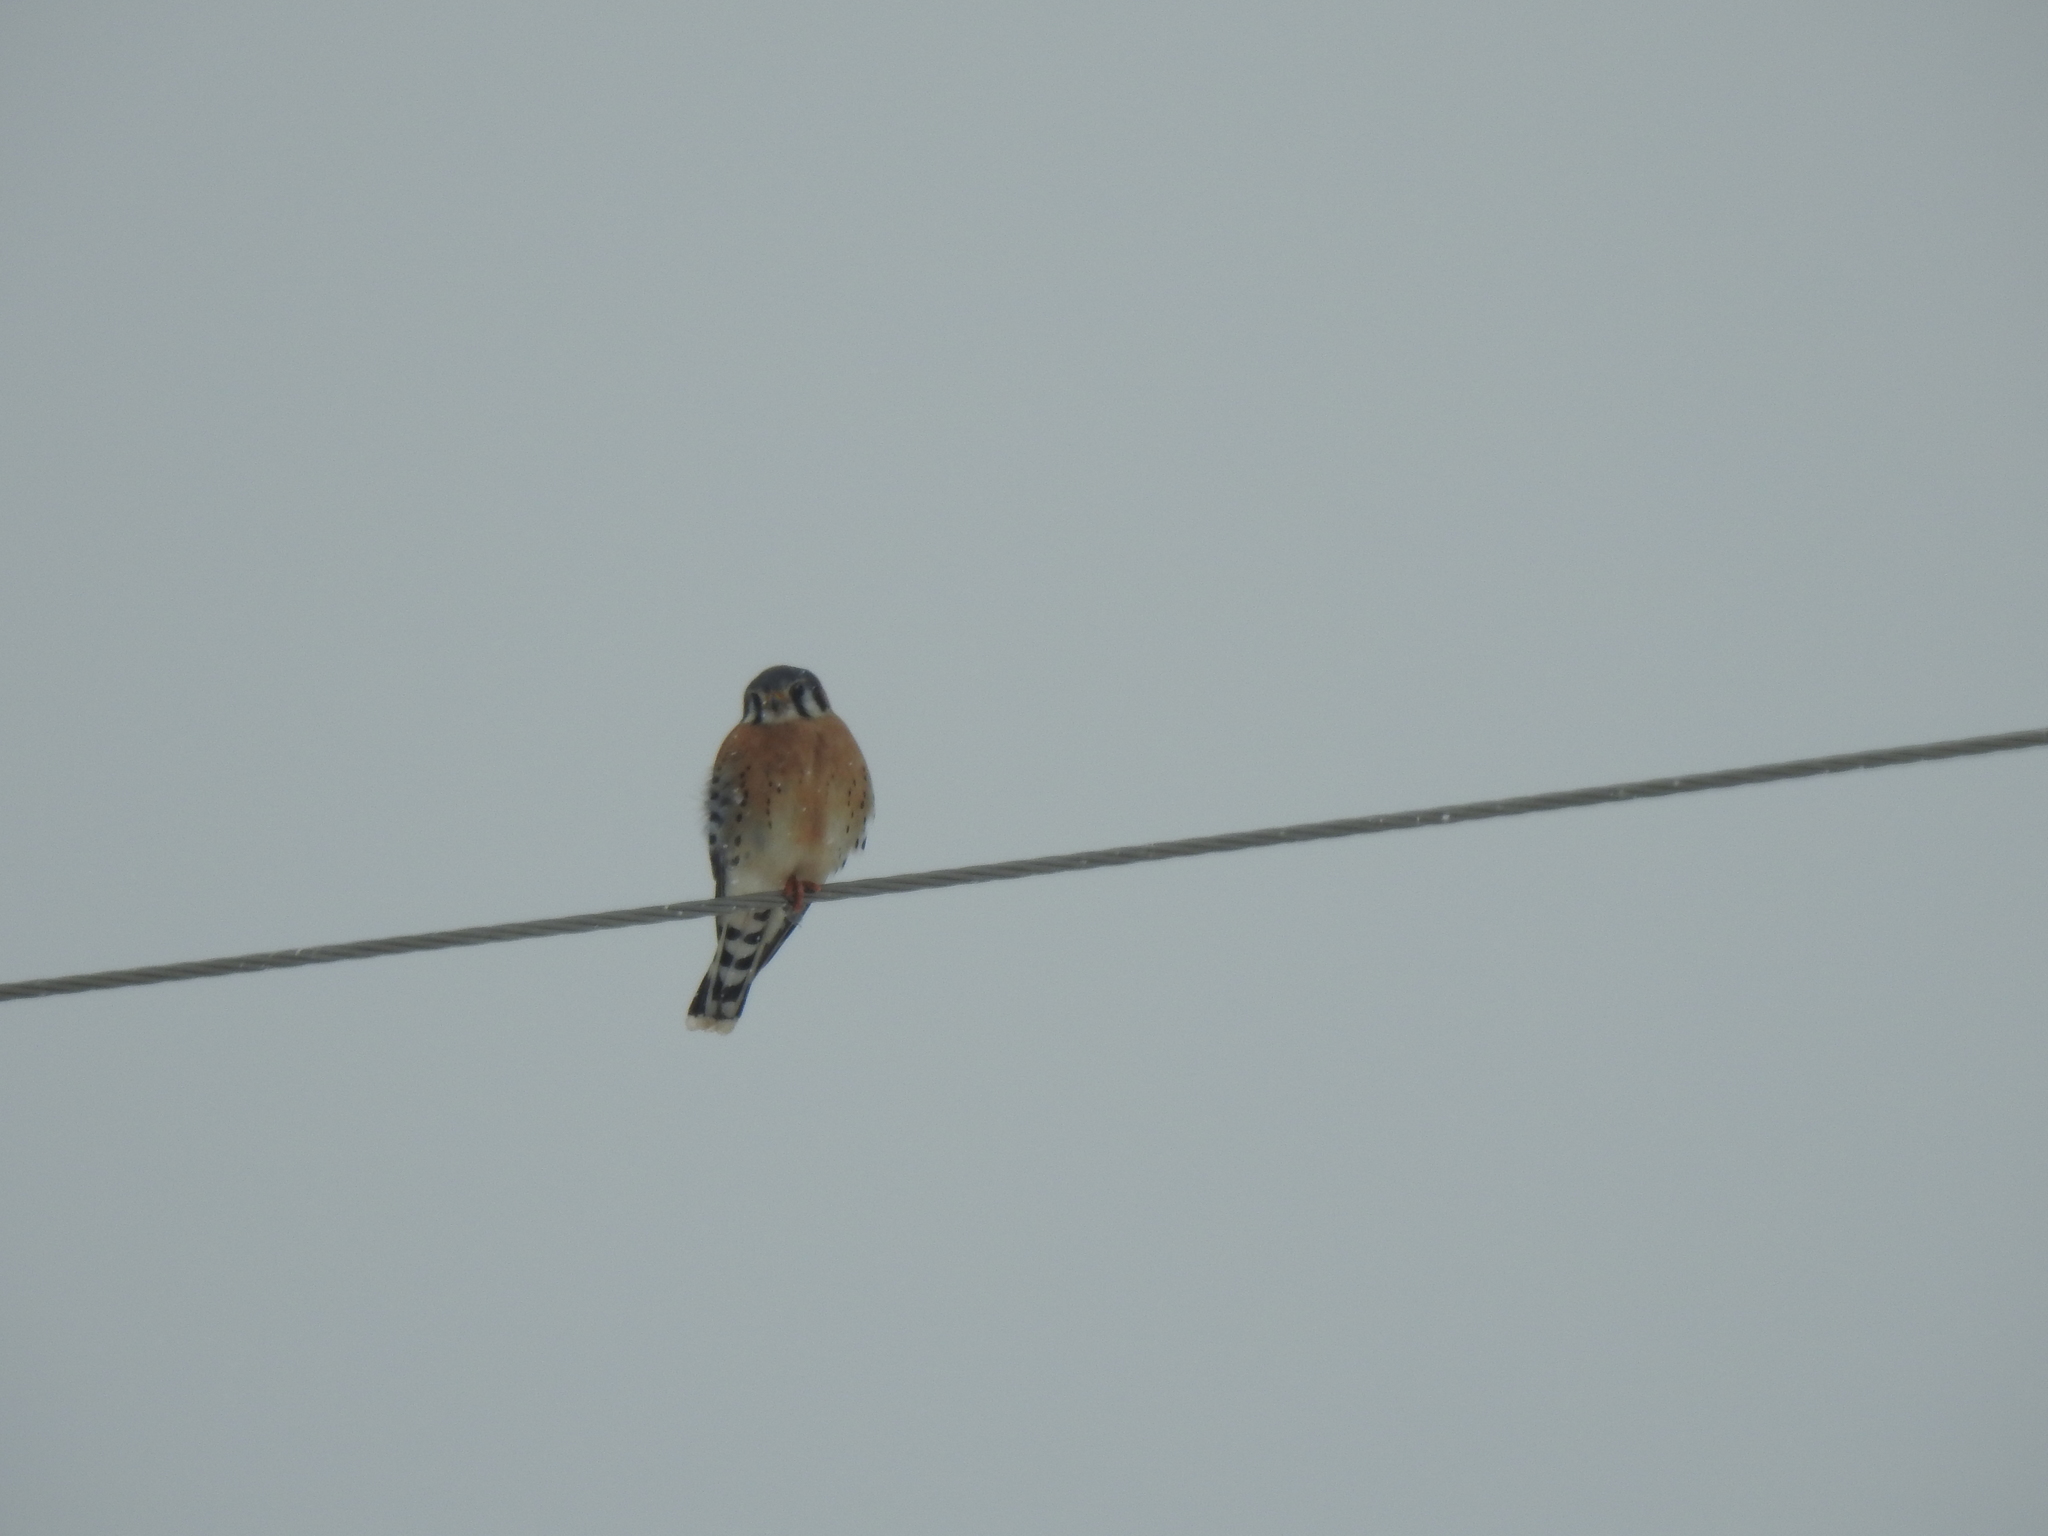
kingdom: Animalia
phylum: Chordata
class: Aves
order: Falconiformes
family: Falconidae
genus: Falco
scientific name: Falco sparverius
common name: American kestrel
